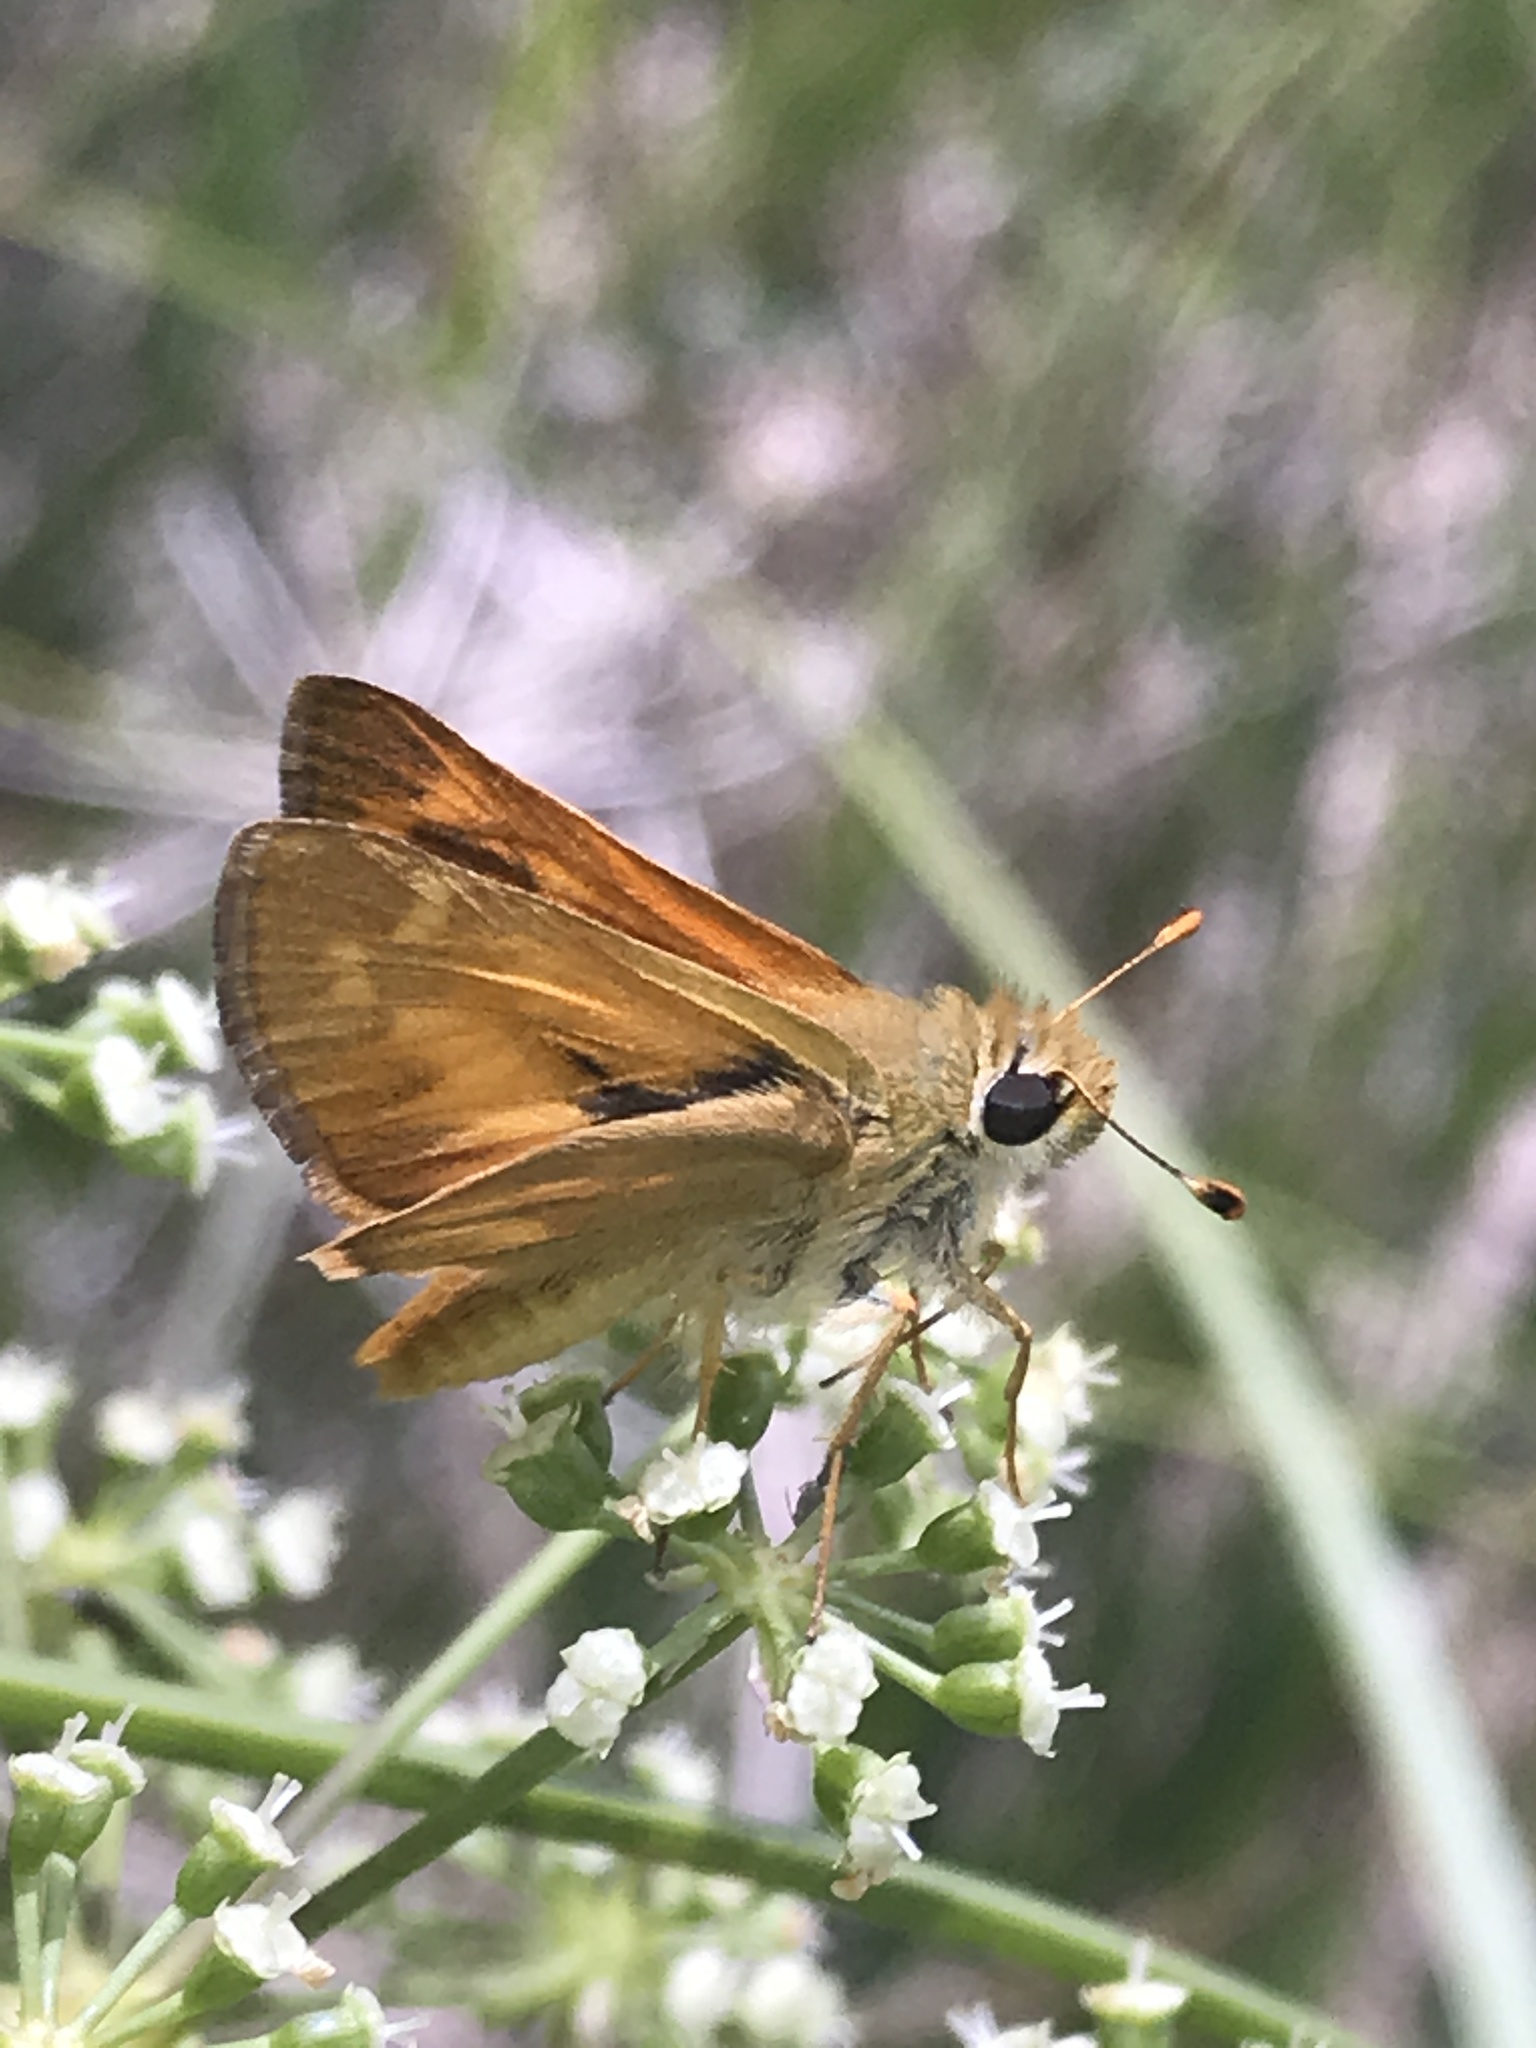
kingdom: Animalia
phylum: Arthropoda
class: Insecta
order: Lepidoptera
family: Hesperiidae
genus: Ochlodes
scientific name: Ochlodes sylvanoides
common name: Woodland skipper
